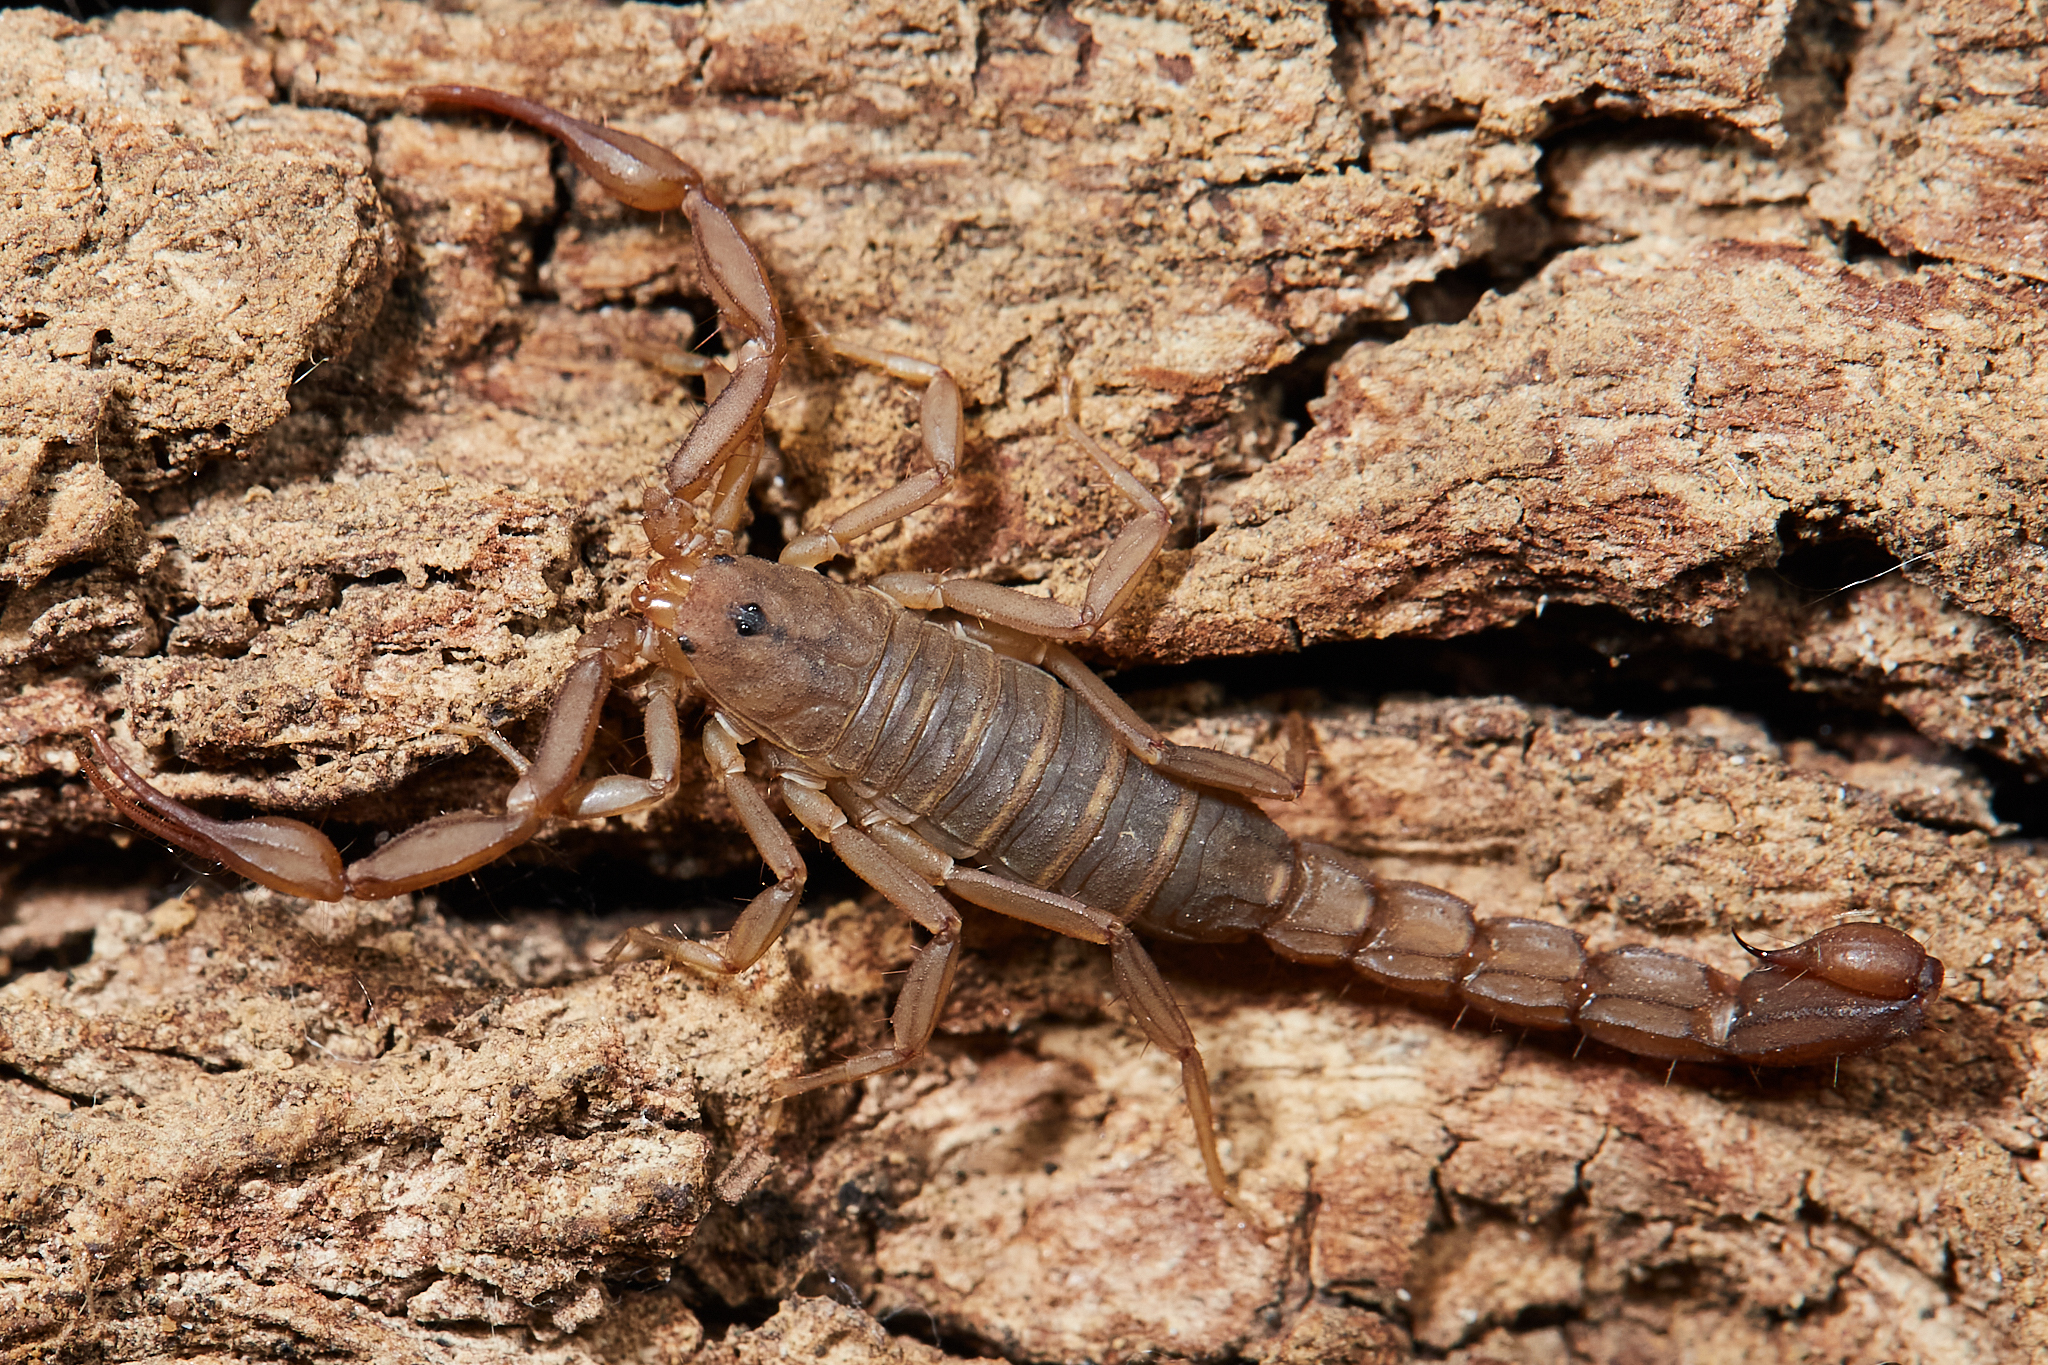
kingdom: Animalia
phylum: Arthropoda
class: Arachnida
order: Scorpiones
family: Vaejovidae
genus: Serradigitus
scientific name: Serradigitus gertschi
